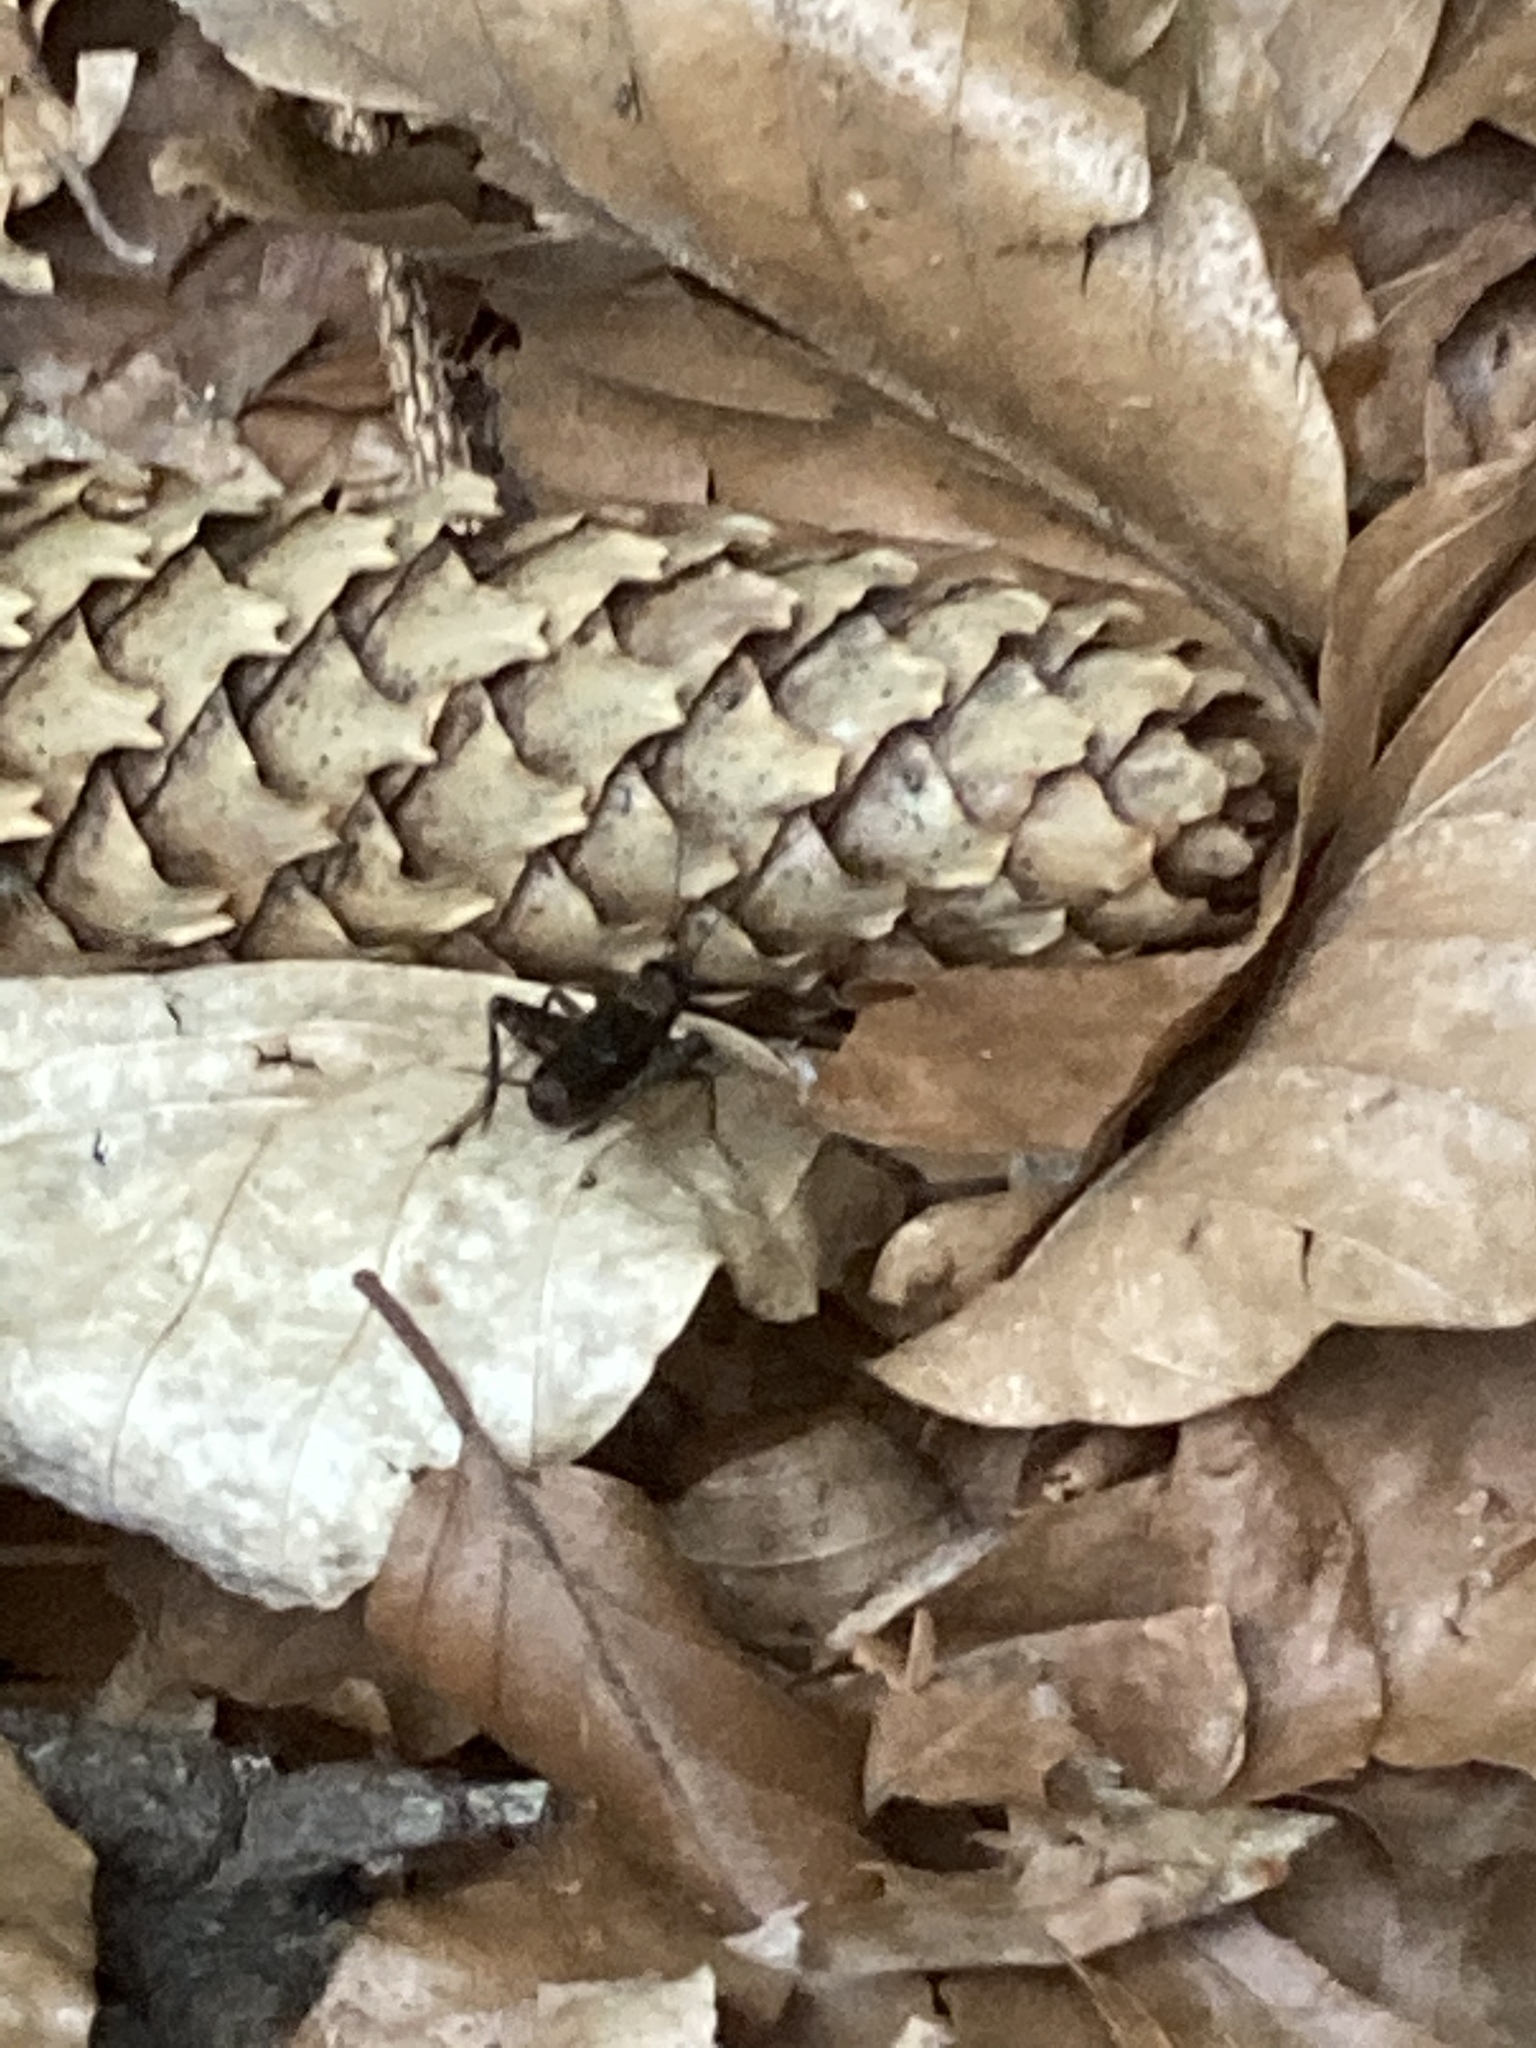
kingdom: Animalia
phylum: Arthropoda
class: Insecta
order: Orthoptera
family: Trigonidiidae
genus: Nemobius
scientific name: Nemobius sylvestris
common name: Wood-cricket
